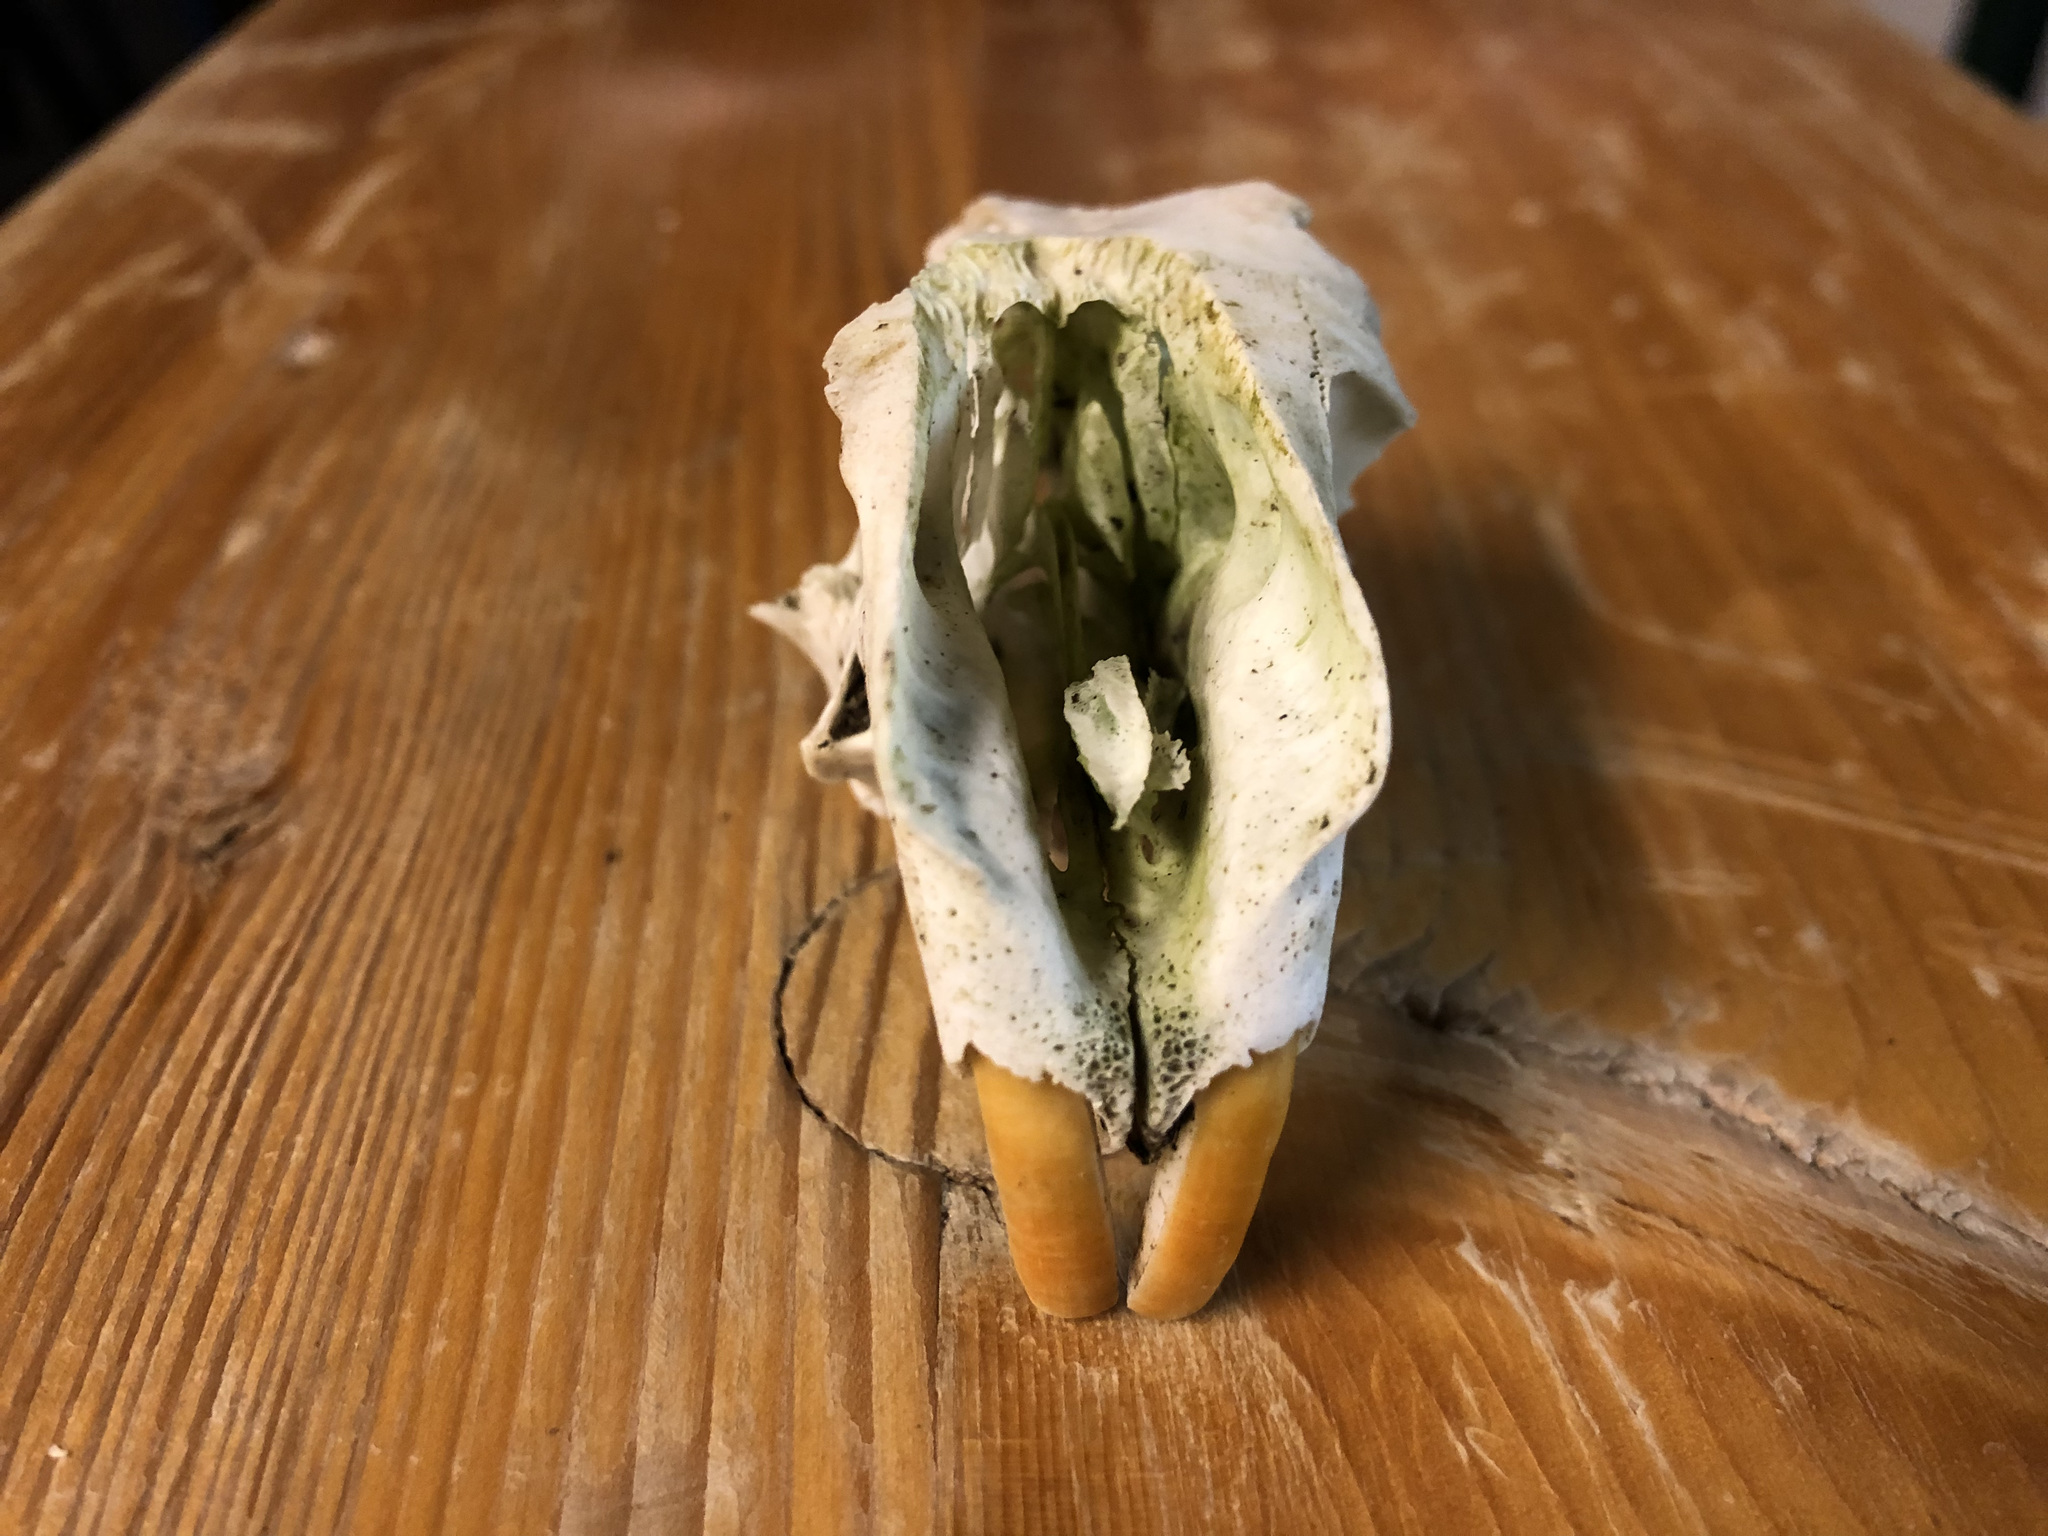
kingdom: Animalia
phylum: Chordata
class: Mammalia
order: Rodentia
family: Sciuridae
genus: Marmota
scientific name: Marmota marmota
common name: Alpine marmot
